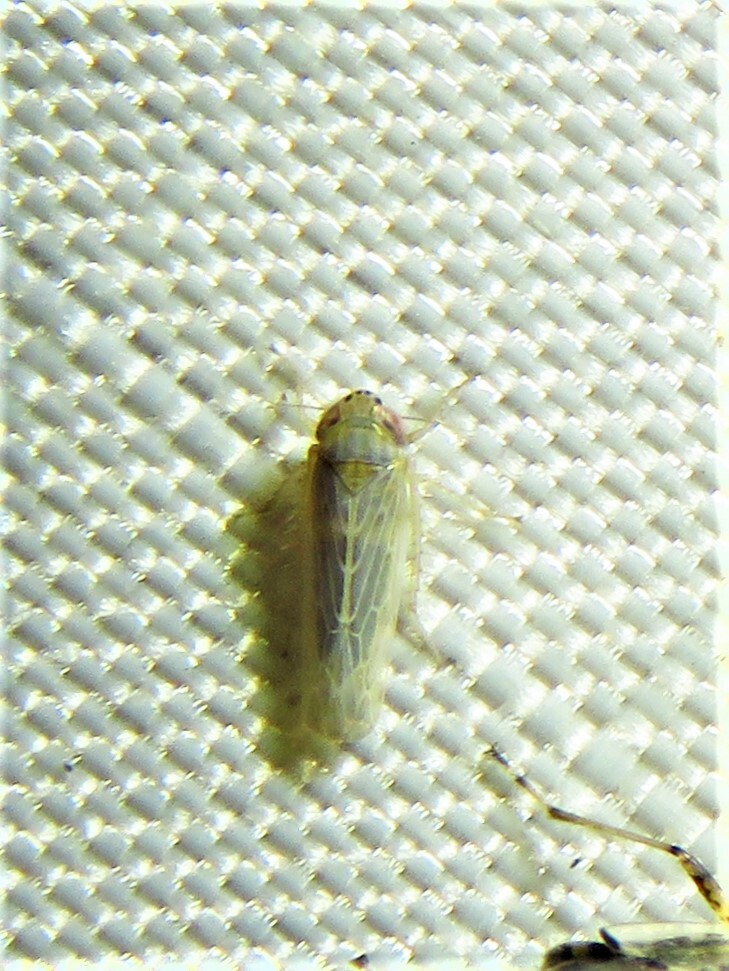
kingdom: Animalia
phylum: Arthropoda
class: Insecta
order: Hemiptera
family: Cicadellidae
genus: Graminella
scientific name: Graminella sonora
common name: Lesser lawn leafhopper
